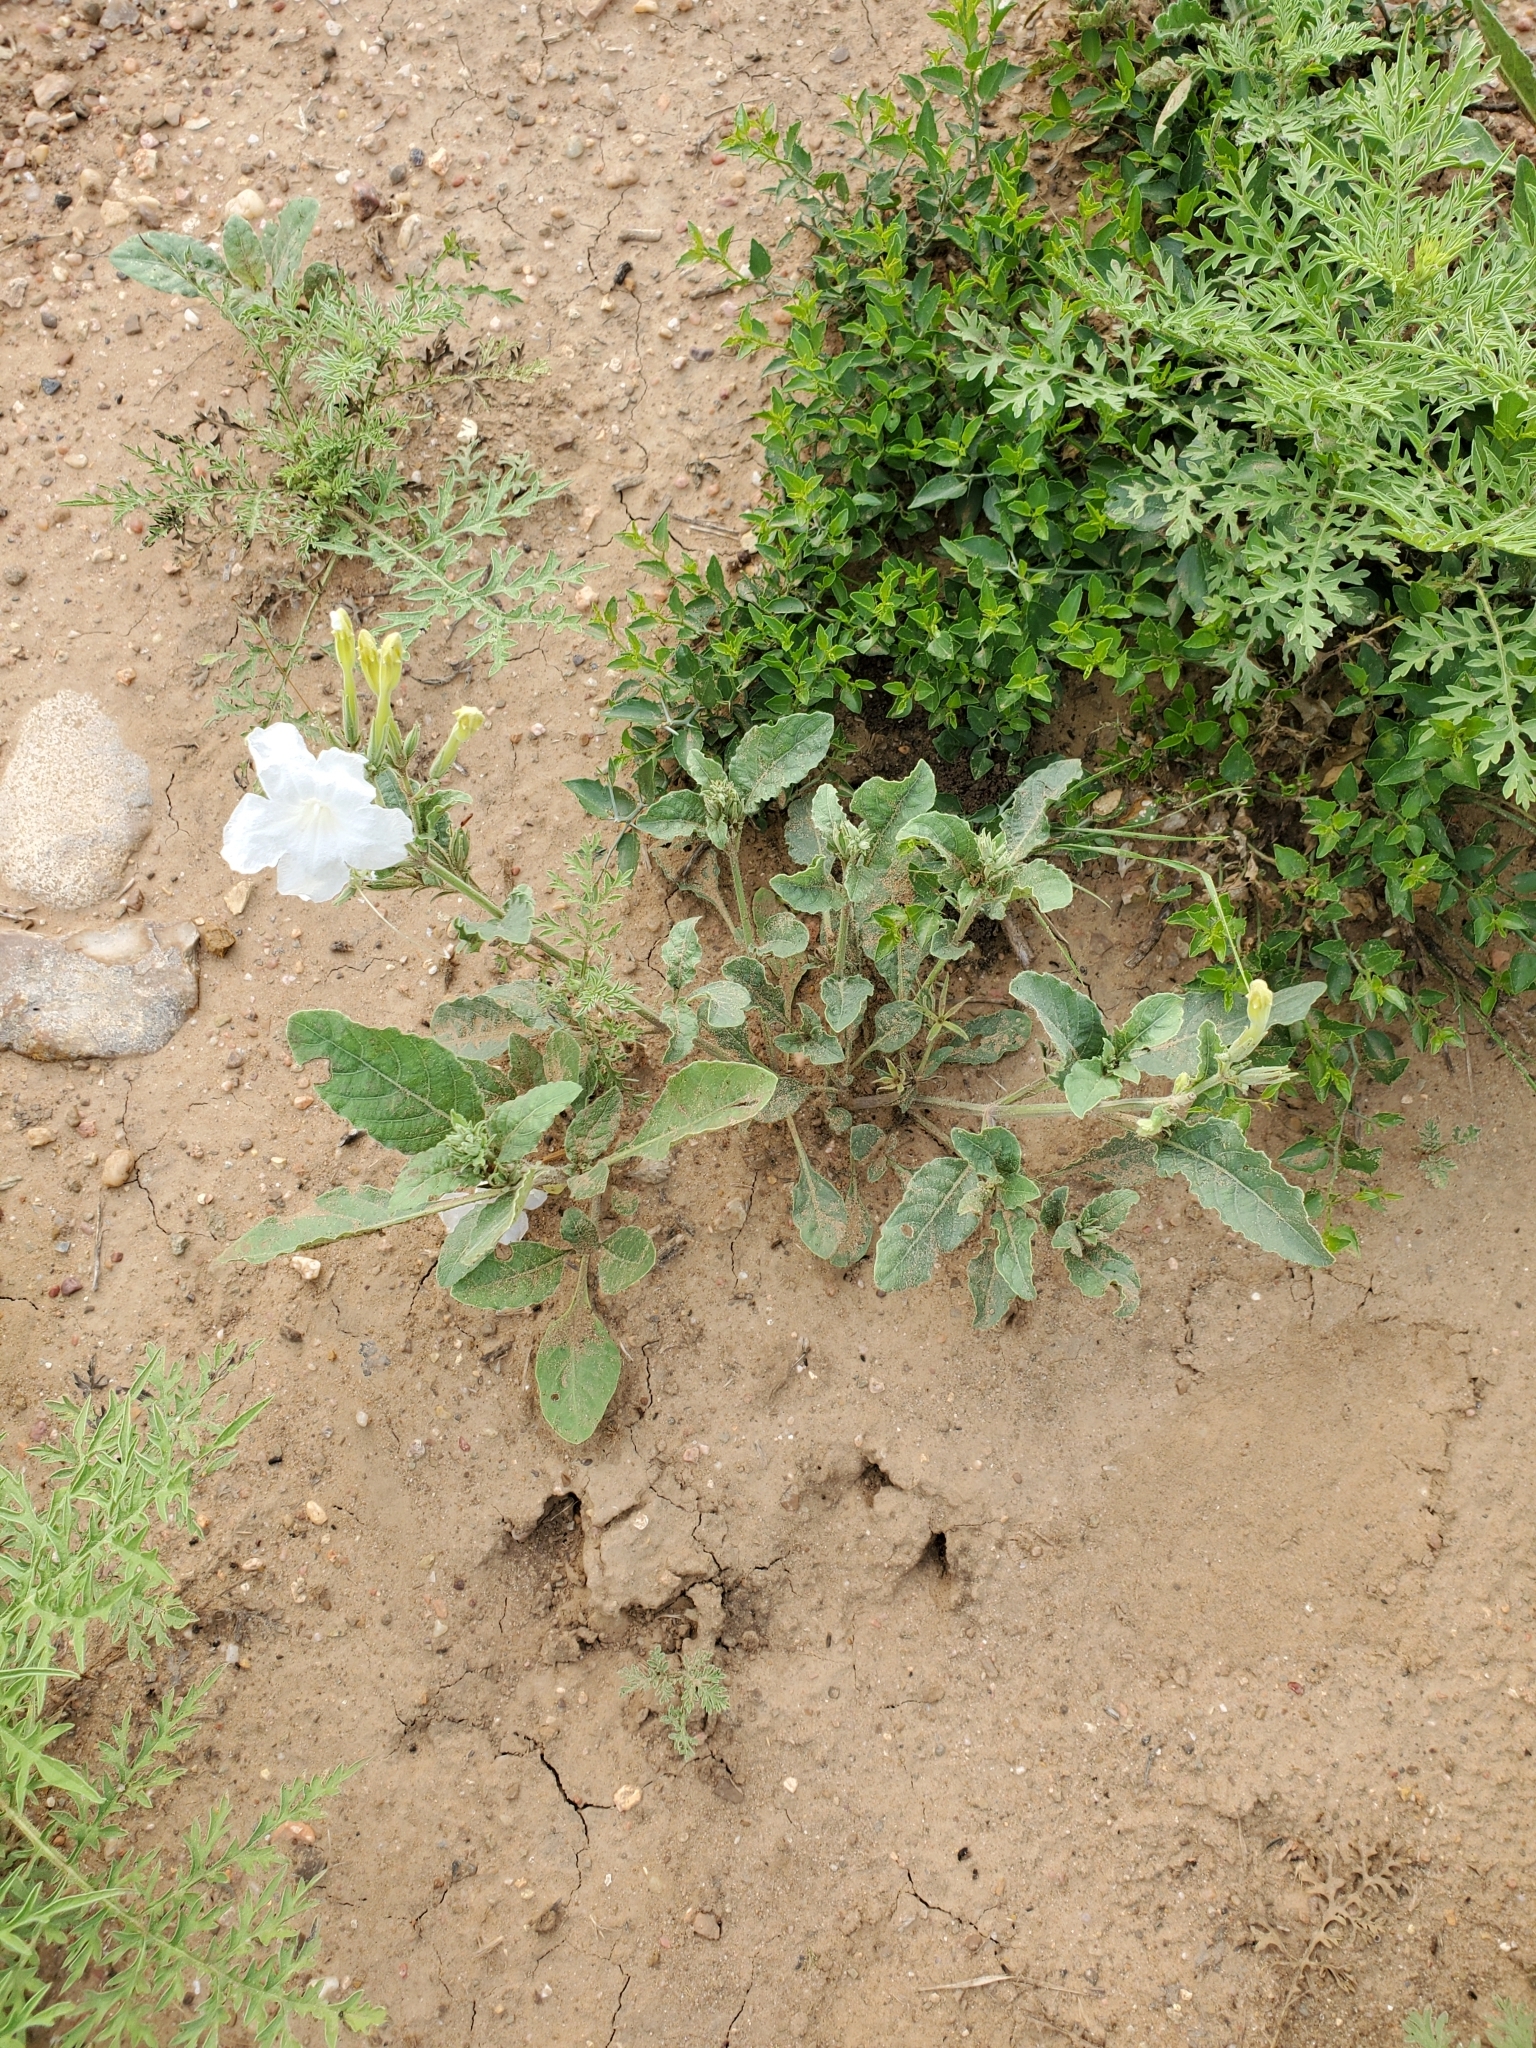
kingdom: Plantae
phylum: Tracheophyta
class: Magnoliopsida
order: Lamiales
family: Acanthaceae
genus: Ruellia
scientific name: Ruellia metziae
